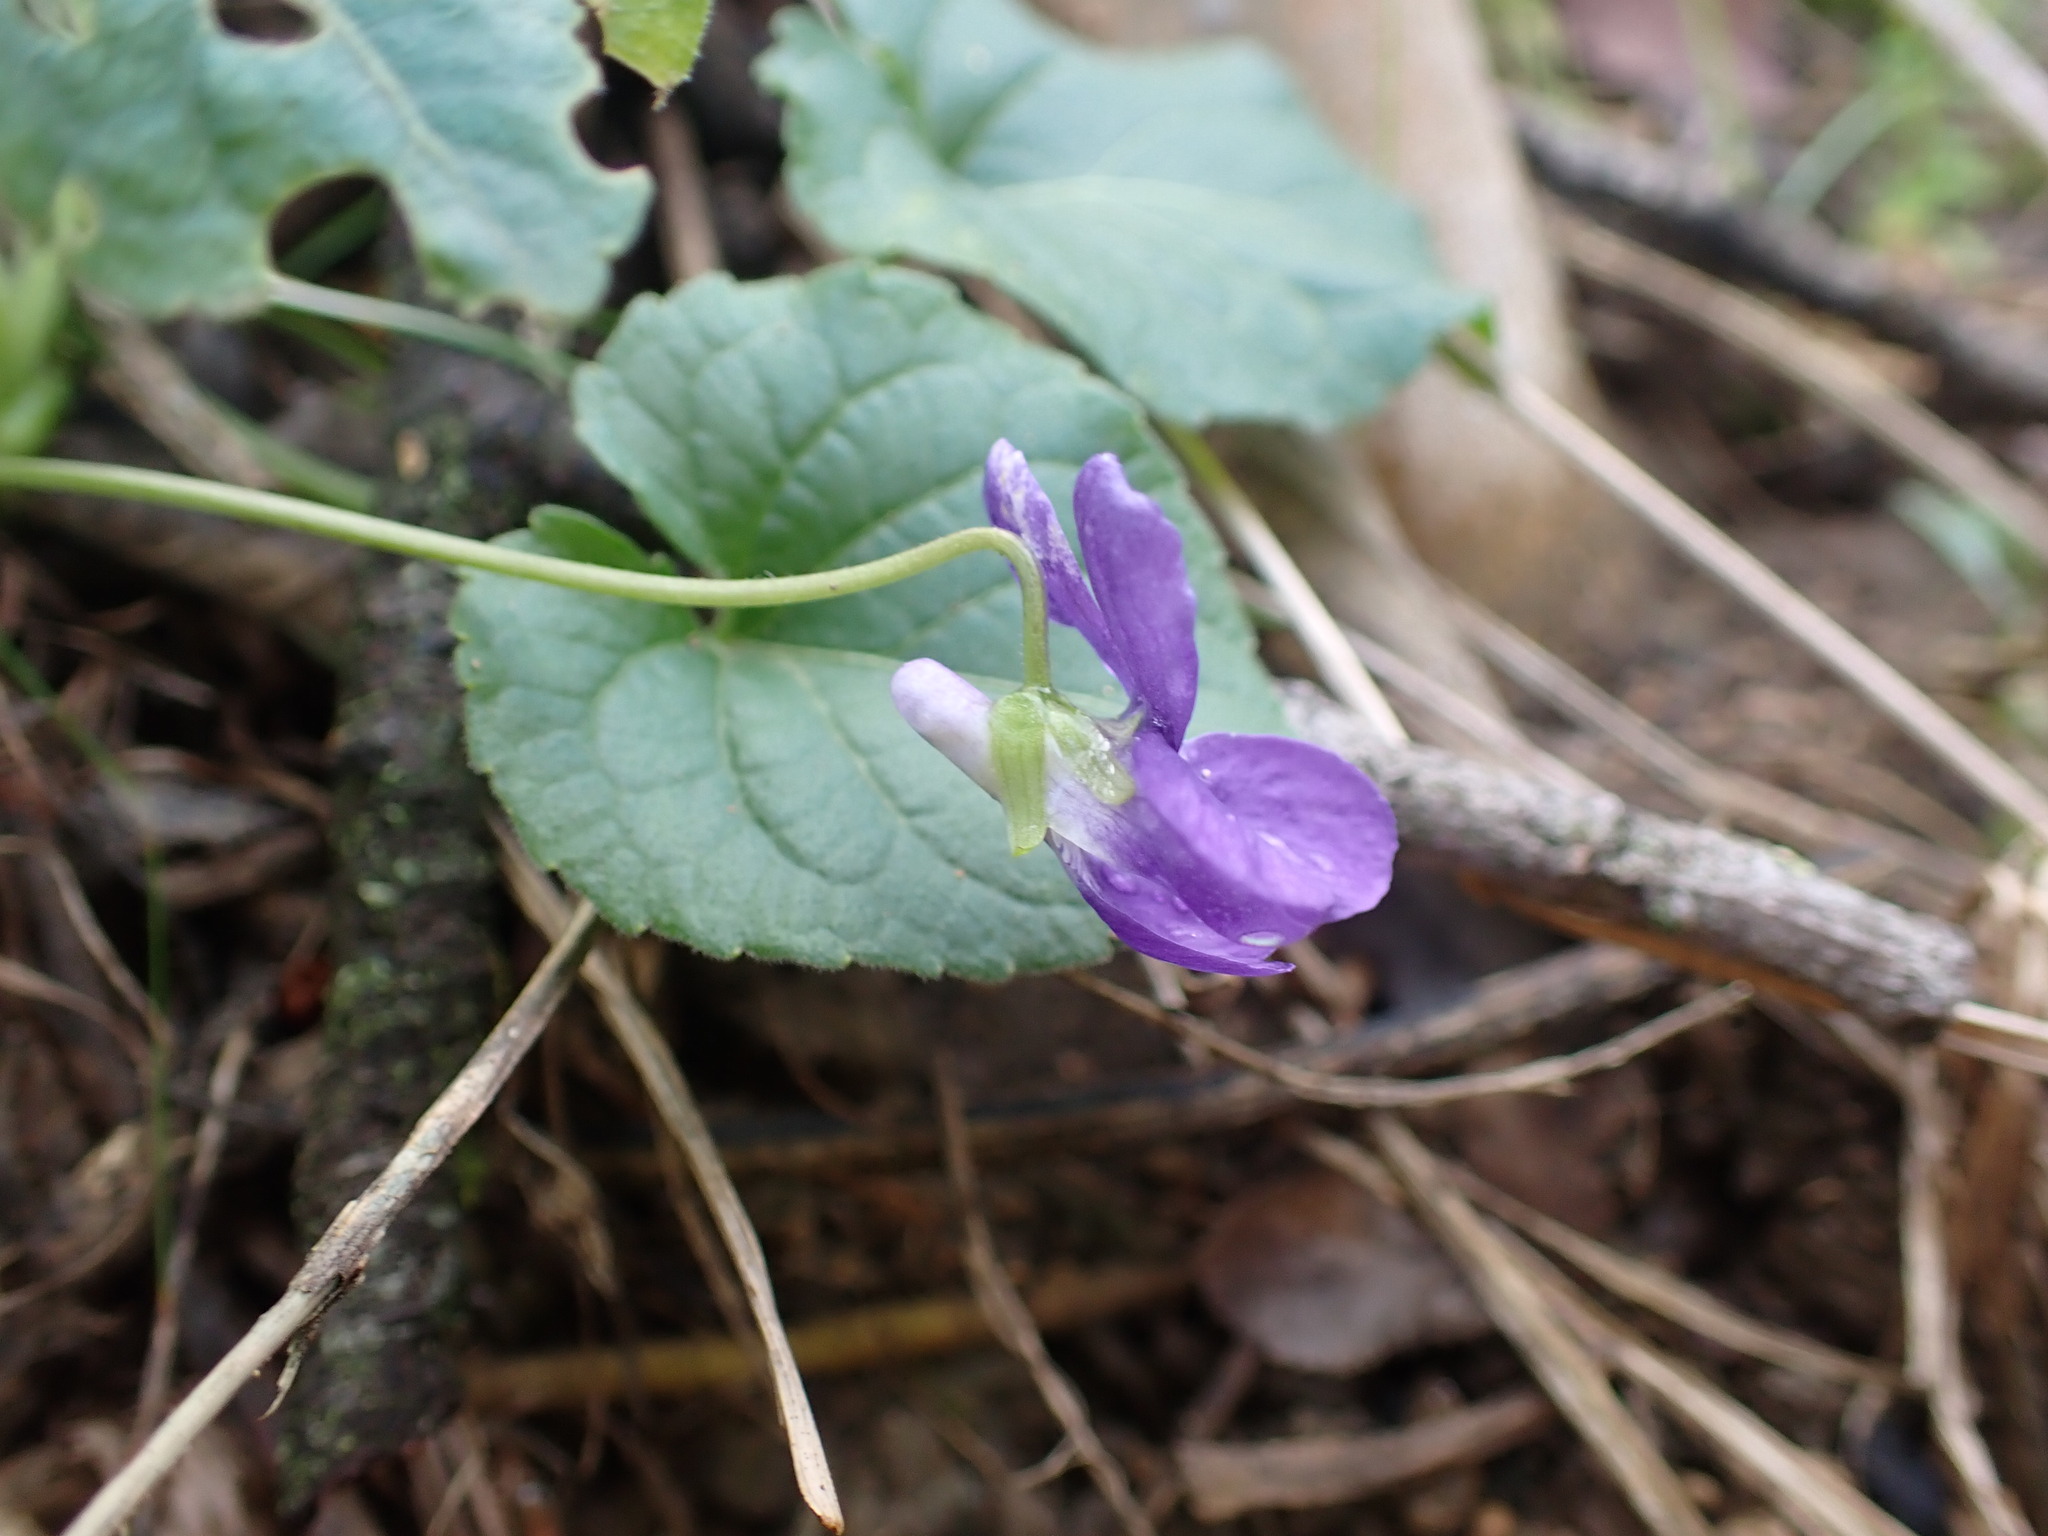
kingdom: Plantae
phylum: Tracheophyta
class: Magnoliopsida
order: Malpighiales
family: Violaceae
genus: Viola
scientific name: Viola odorata
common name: Sweet violet
